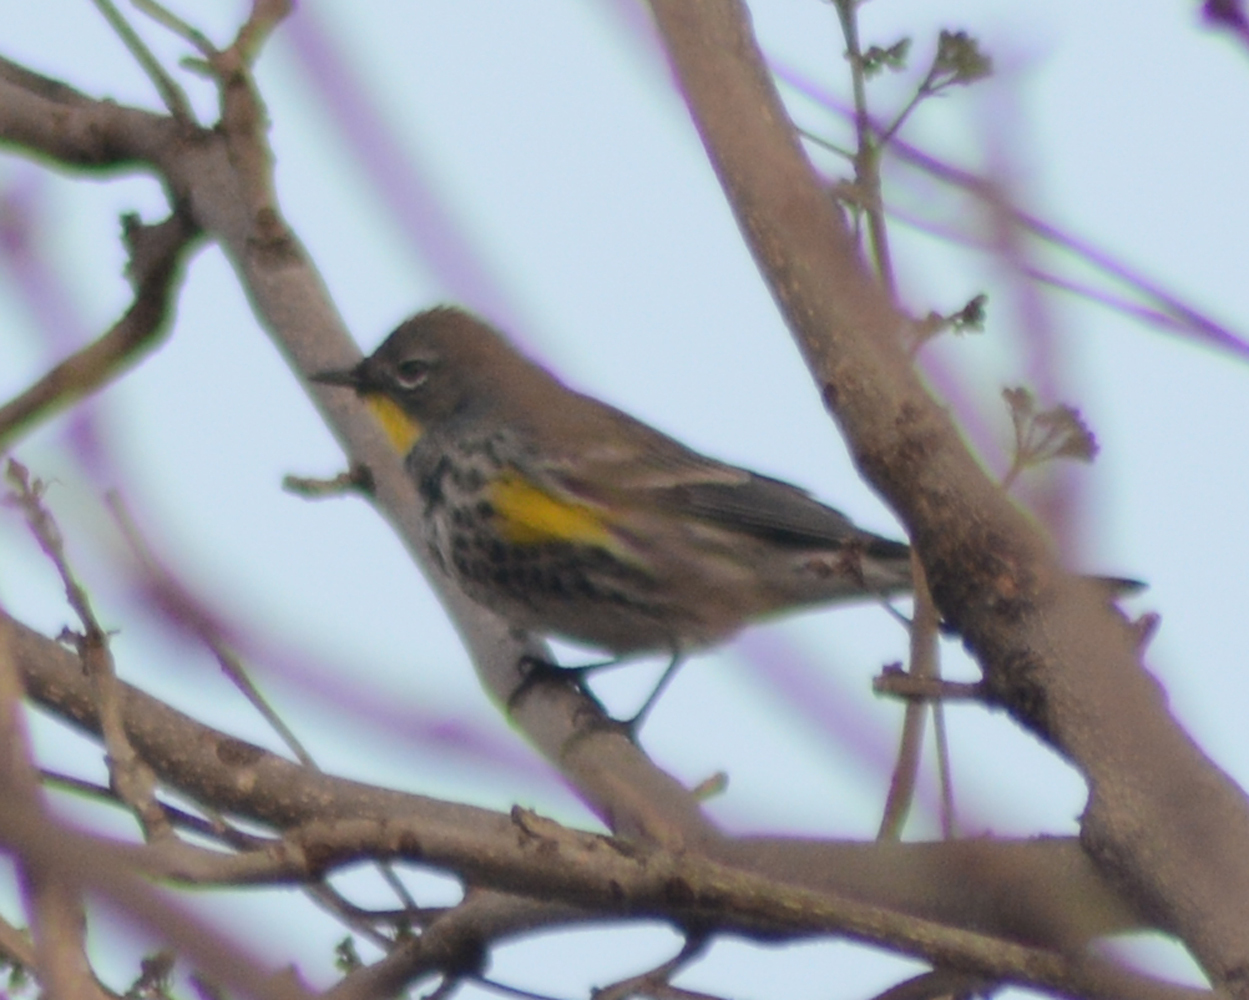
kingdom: Animalia
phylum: Chordata
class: Aves
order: Passeriformes
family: Parulidae
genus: Setophaga
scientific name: Setophaga auduboni
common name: Audubon's warbler
